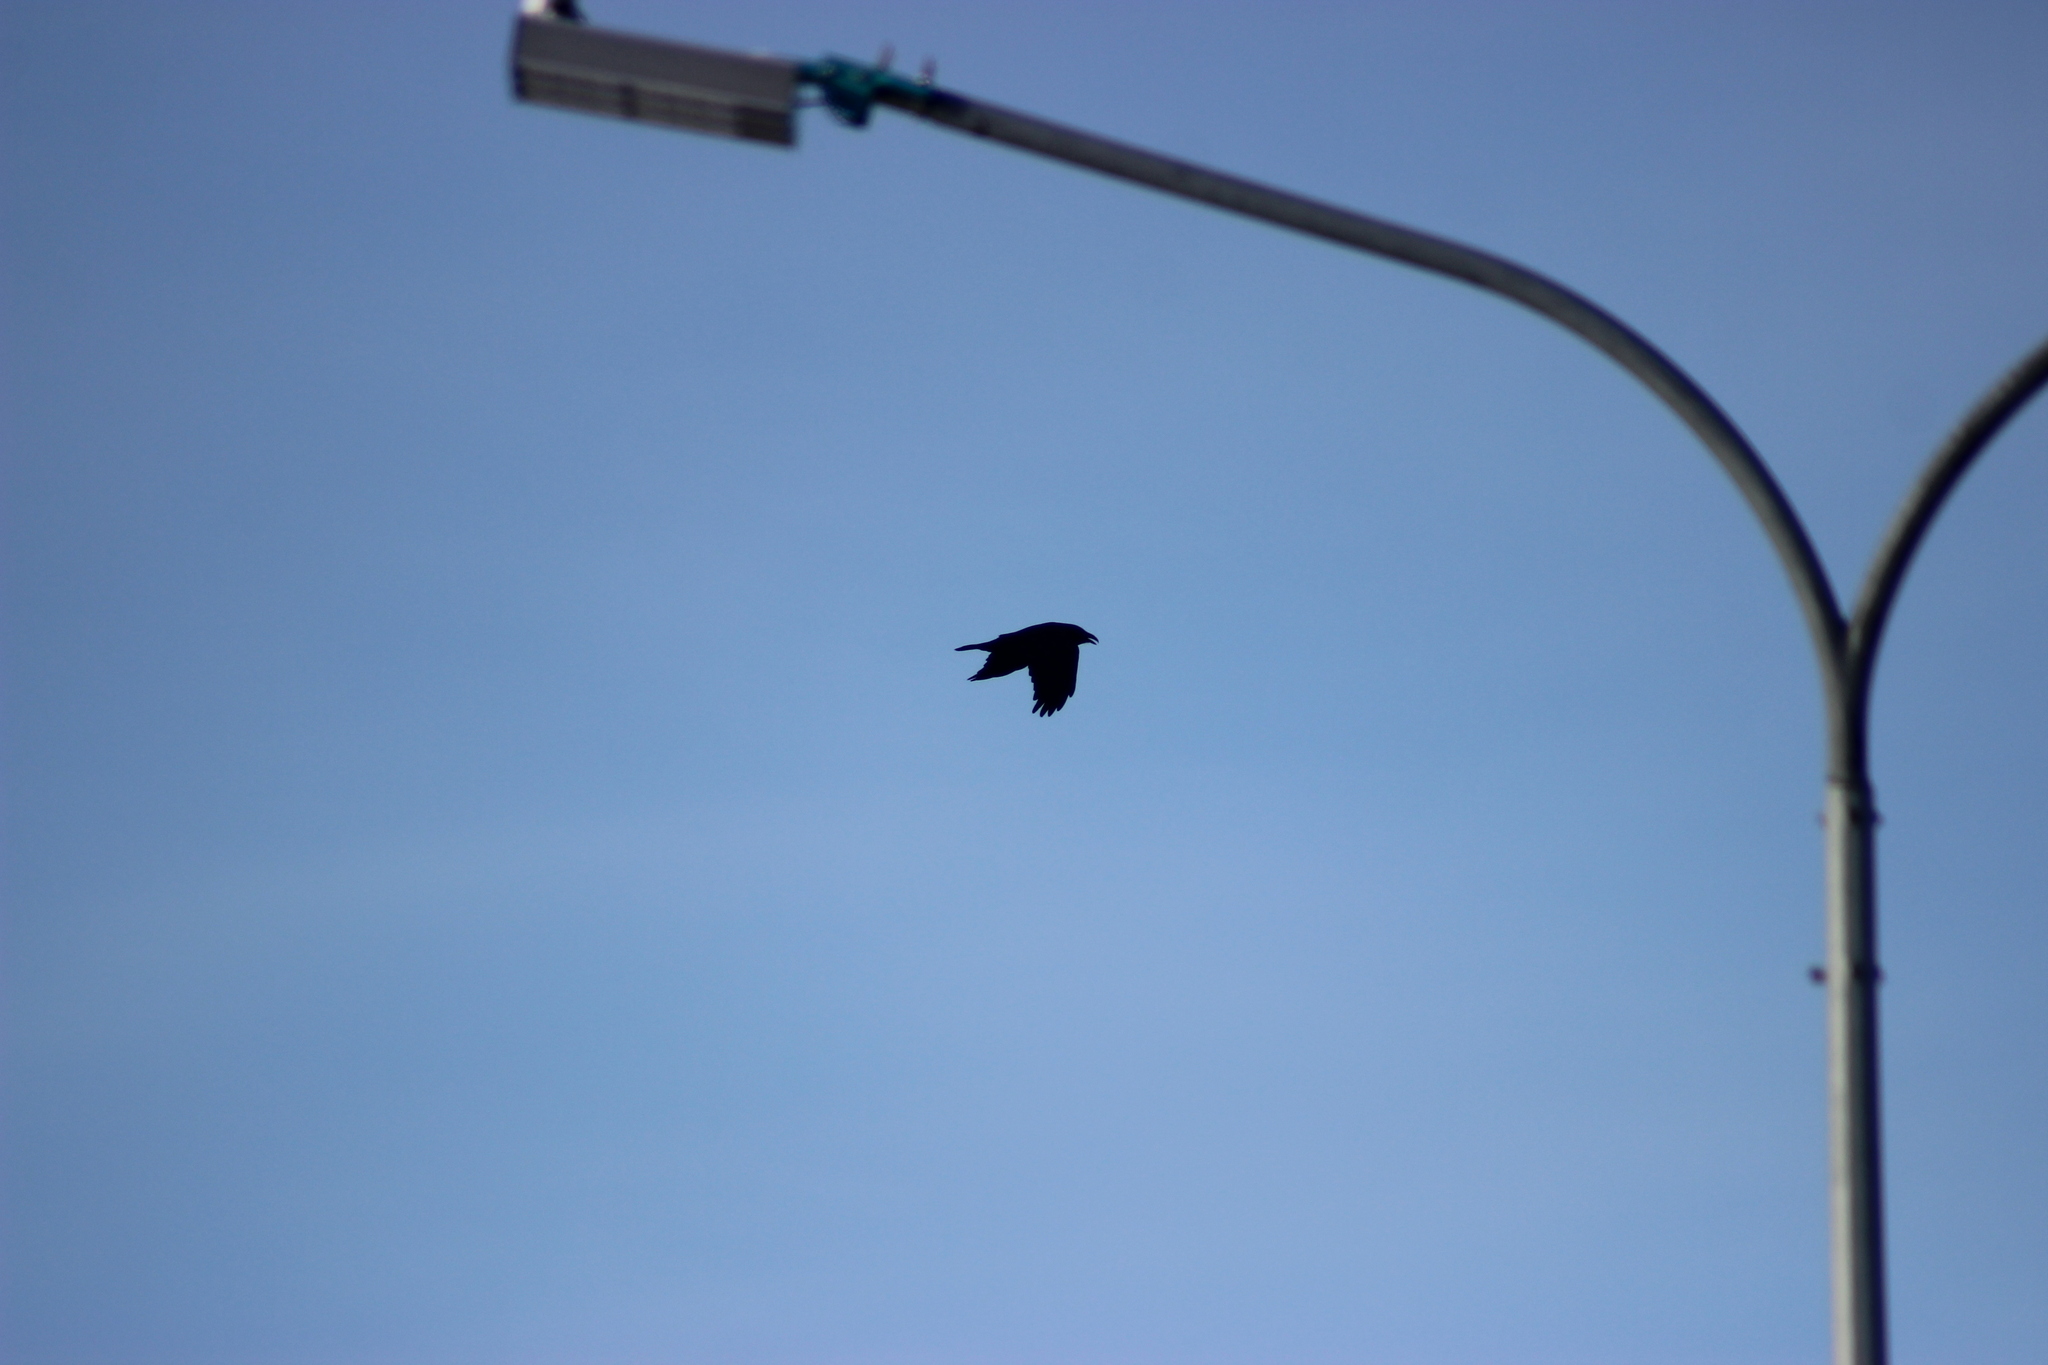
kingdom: Animalia
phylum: Chordata
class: Aves
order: Passeriformes
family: Corvidae
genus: Corvus
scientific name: Corvus corax
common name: Common raven
